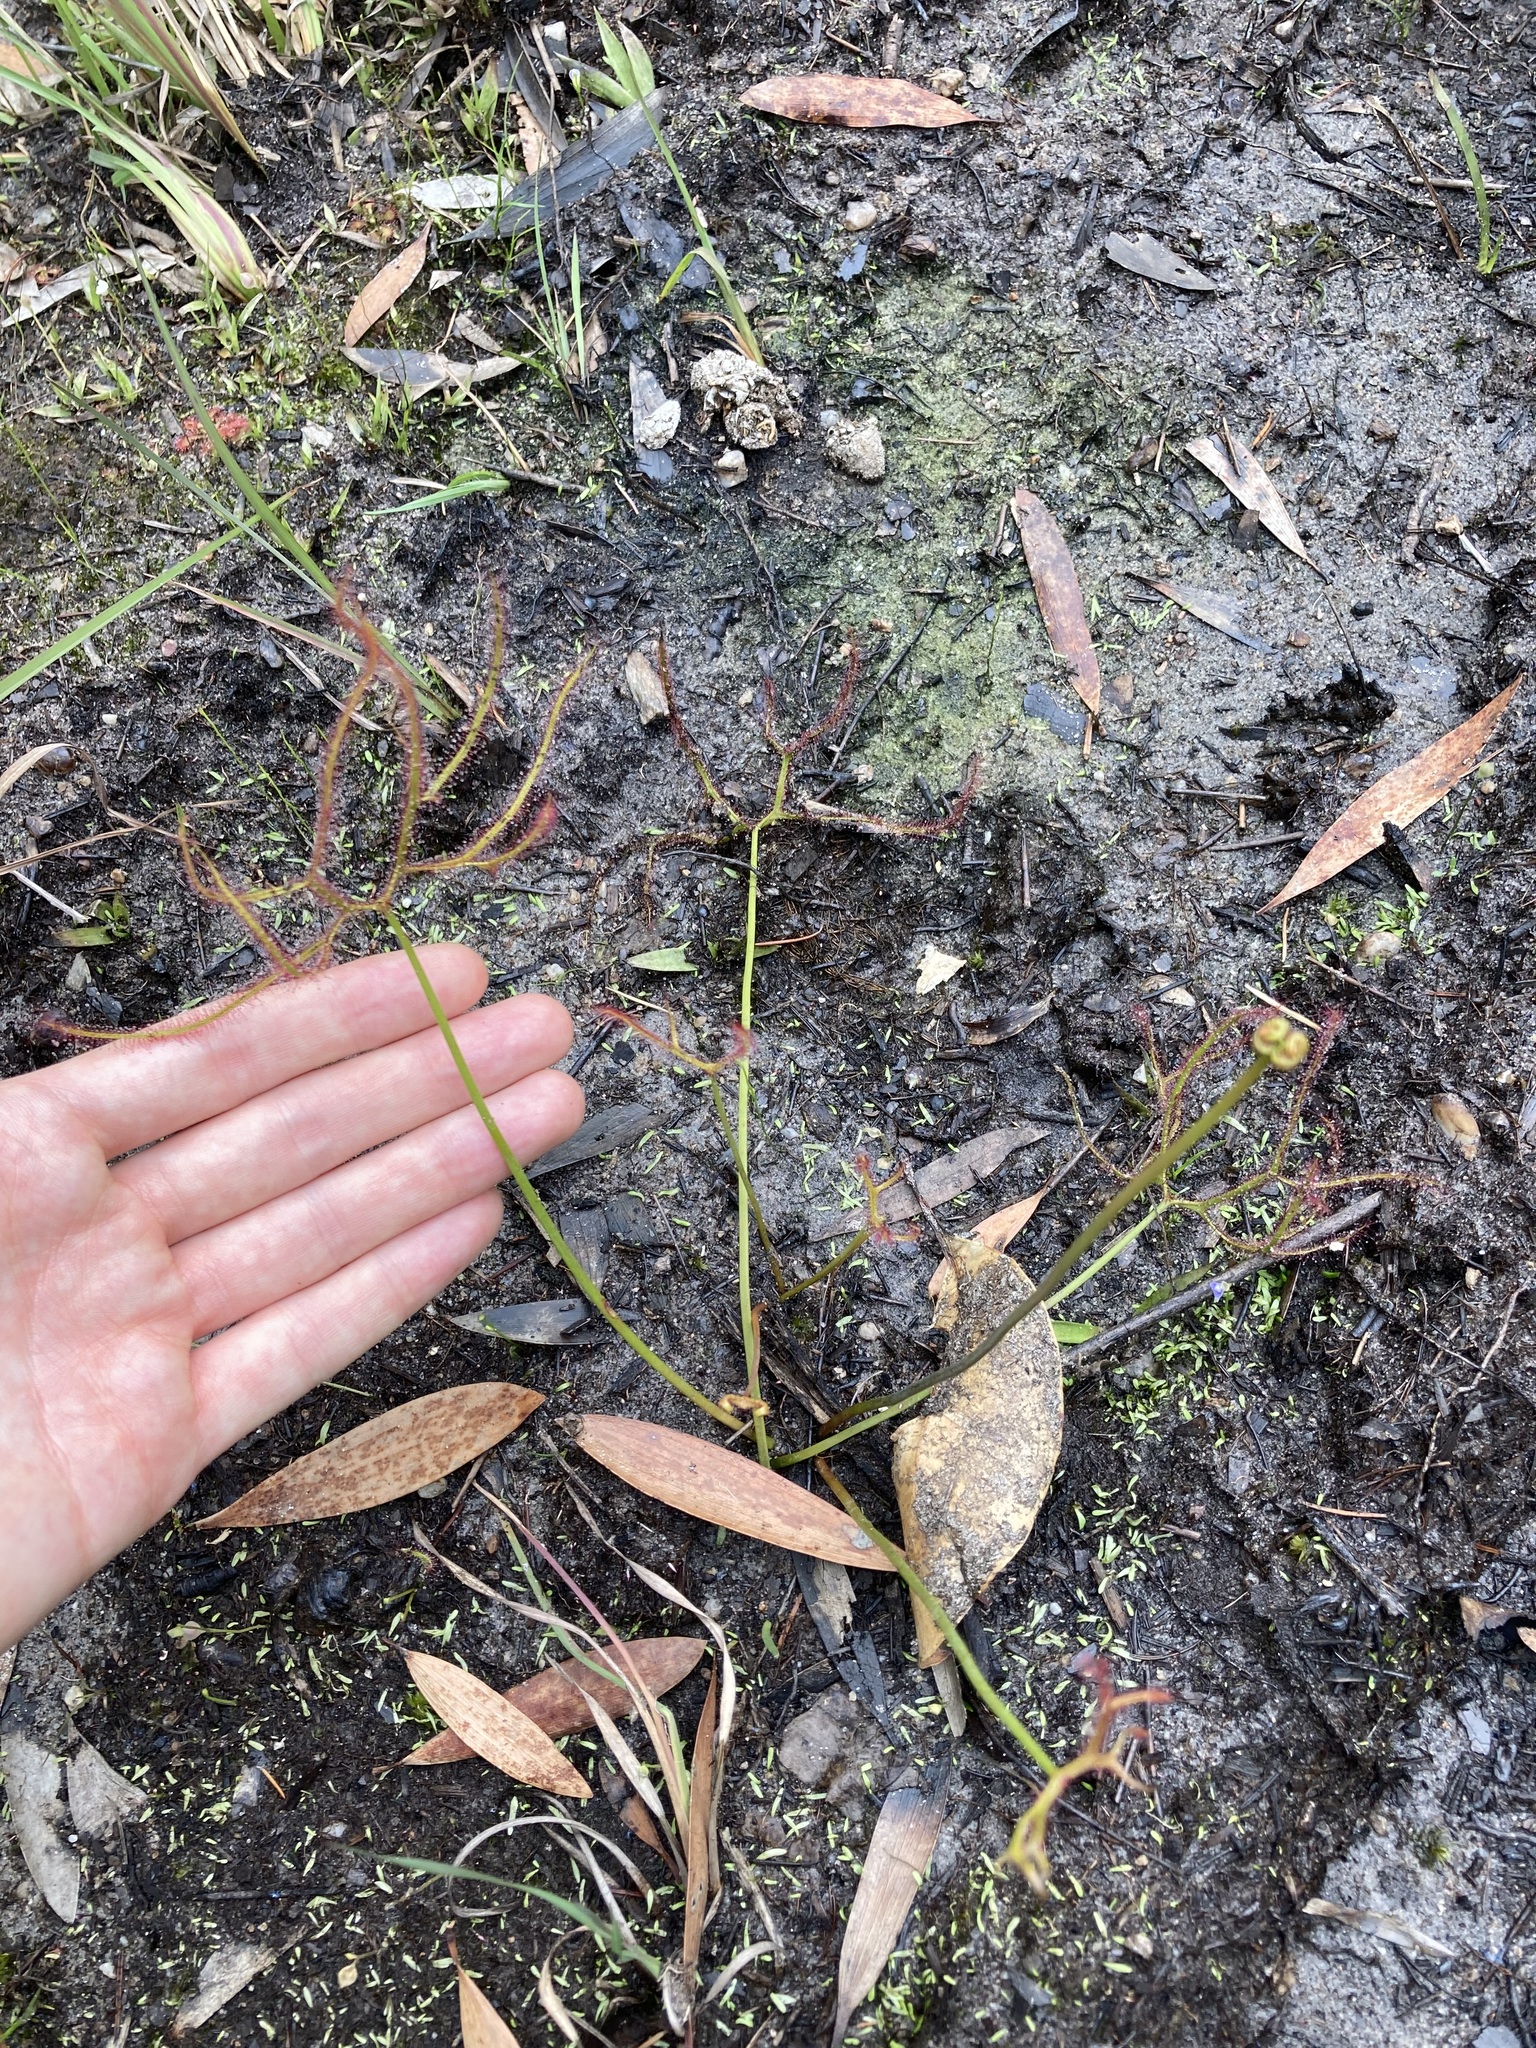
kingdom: Plantae
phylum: Tracheophyta
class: Magnoliopsida
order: Caryophyllales
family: Droseraceae
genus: Drosera
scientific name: Drosera binata
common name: Forked sundew
